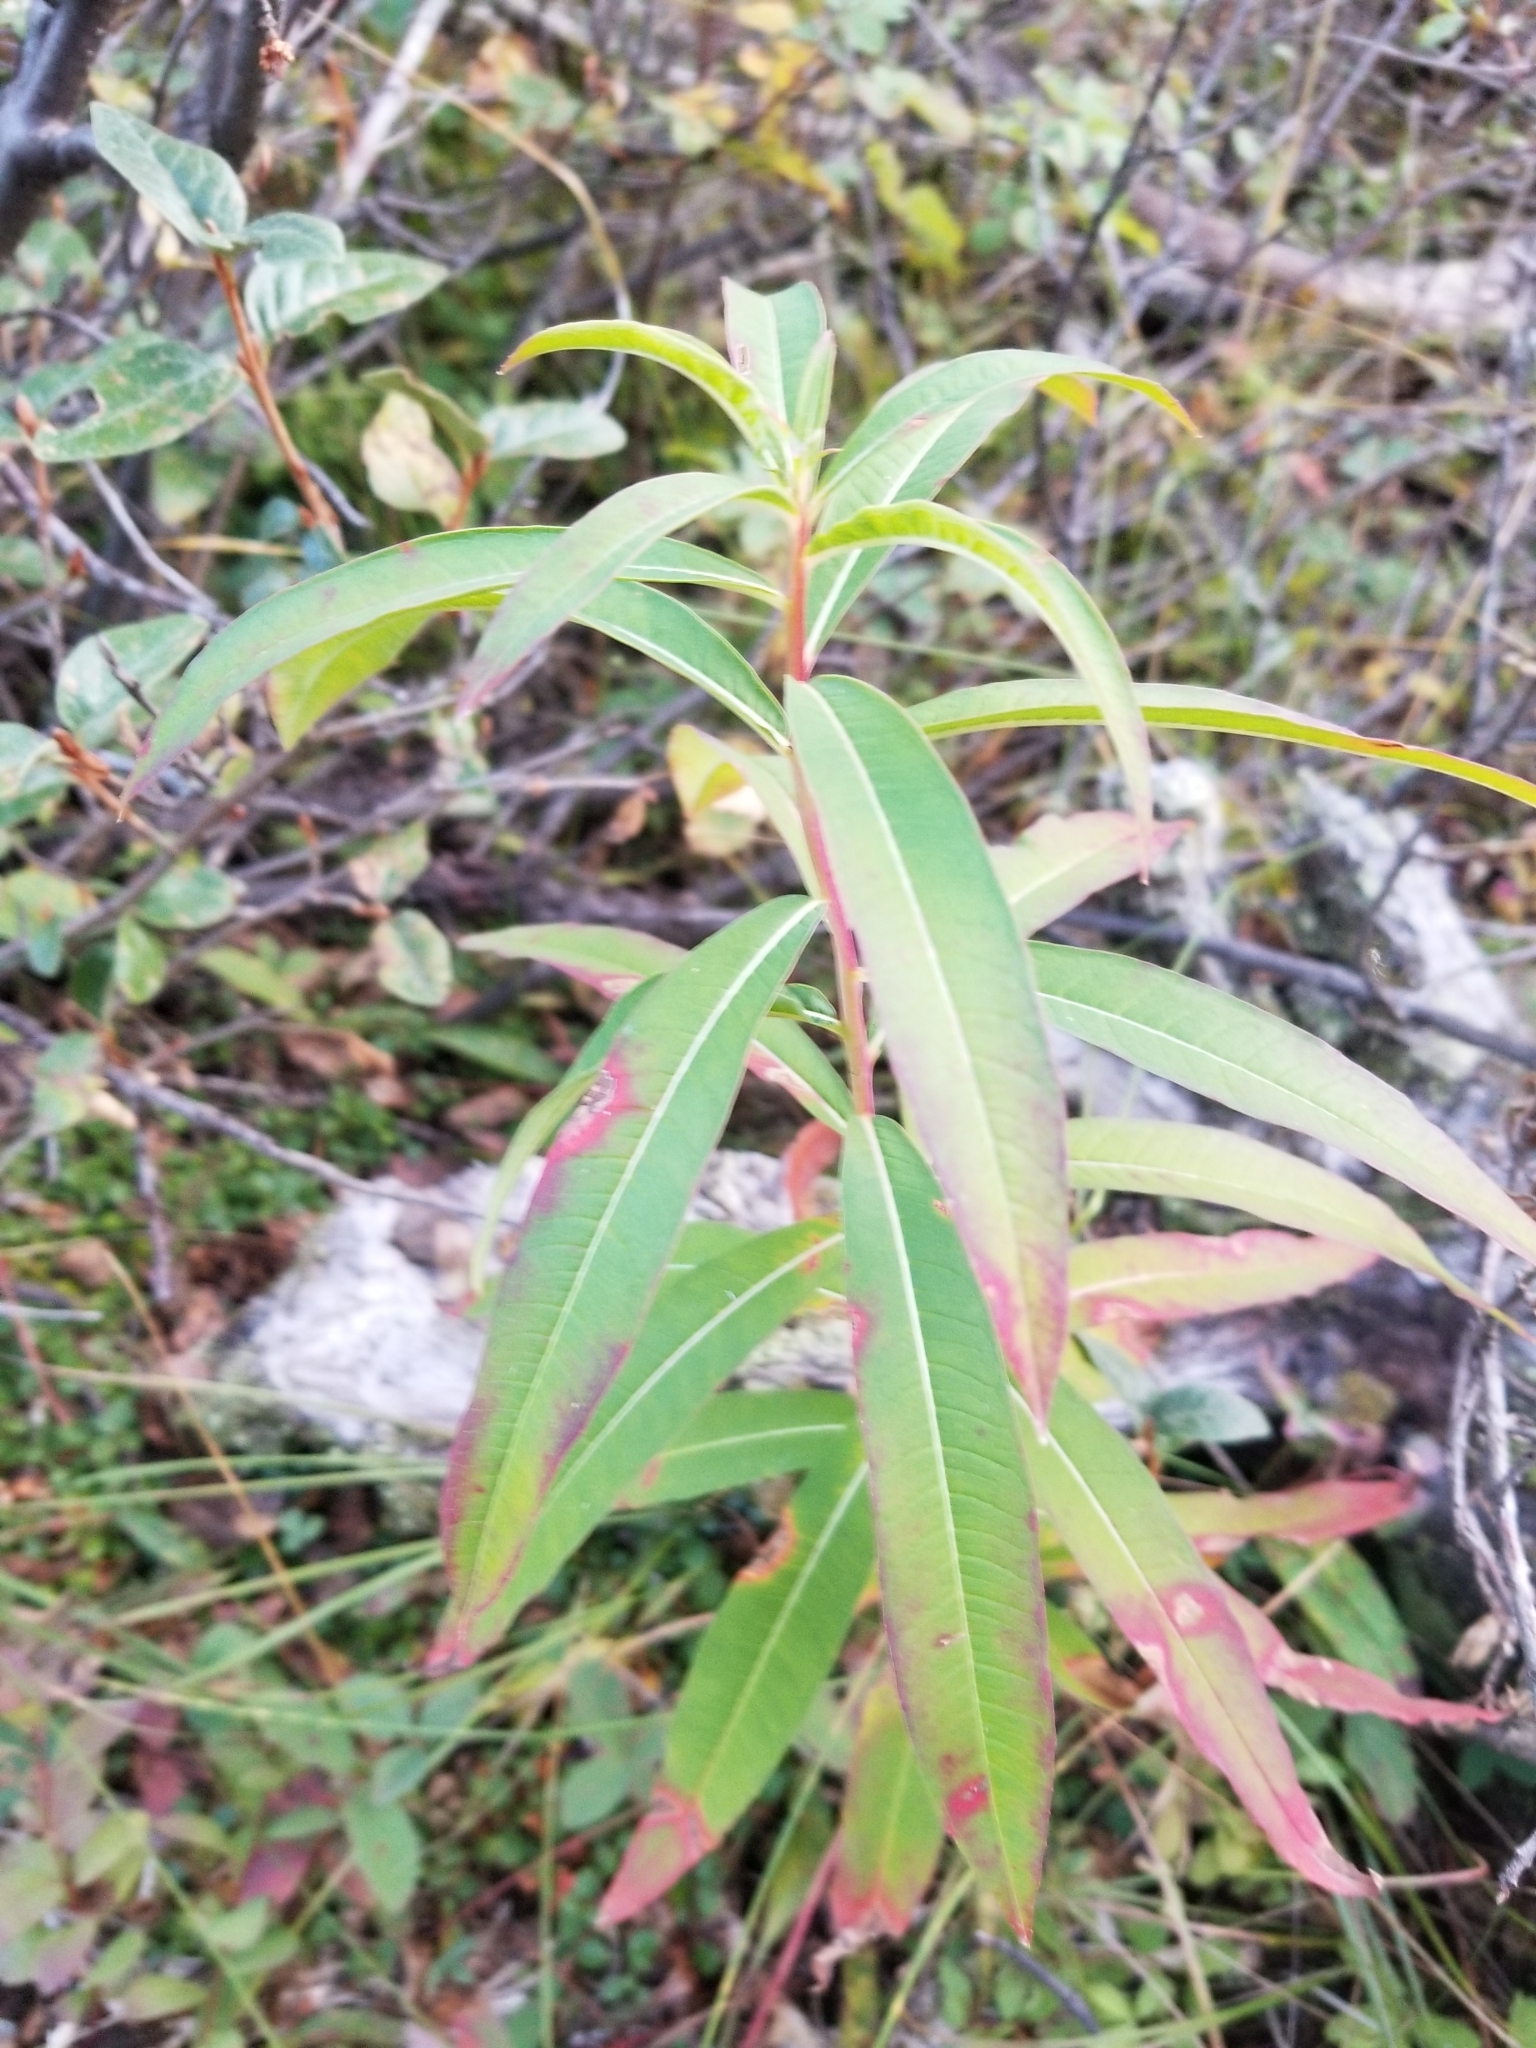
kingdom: Plantae
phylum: Tracheophyta
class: Magnoliopsida
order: Myrtales
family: Onagraceae
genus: Chamaenerion
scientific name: Chamaenerion angustifolium
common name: Fireweed
